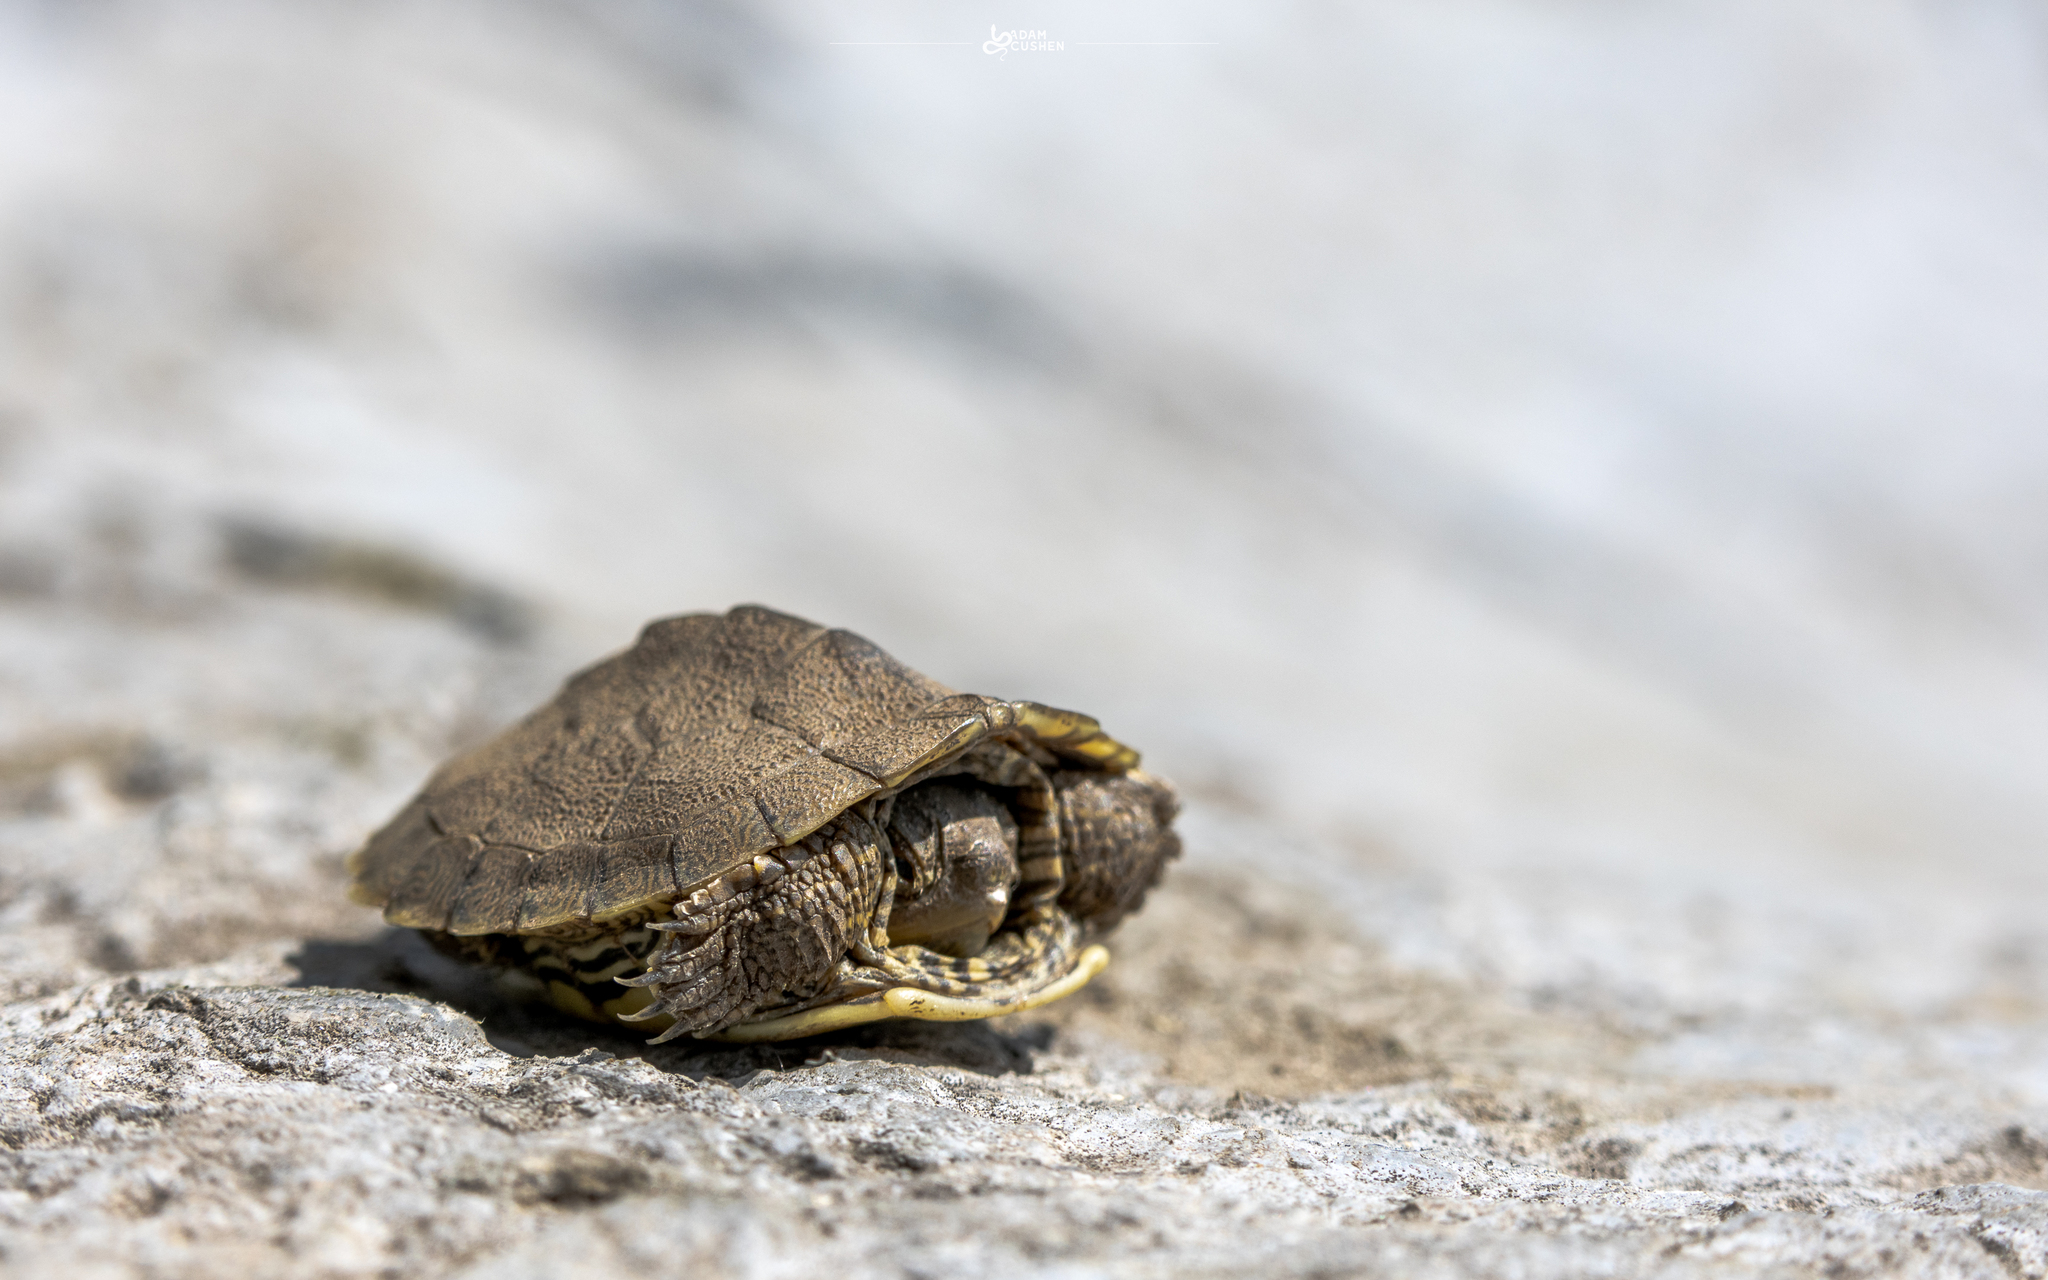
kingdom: Animalia
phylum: Chordata
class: Testudines
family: Emydidae
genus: Graptemys
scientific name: Graptemys geographica
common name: Common map turtle
